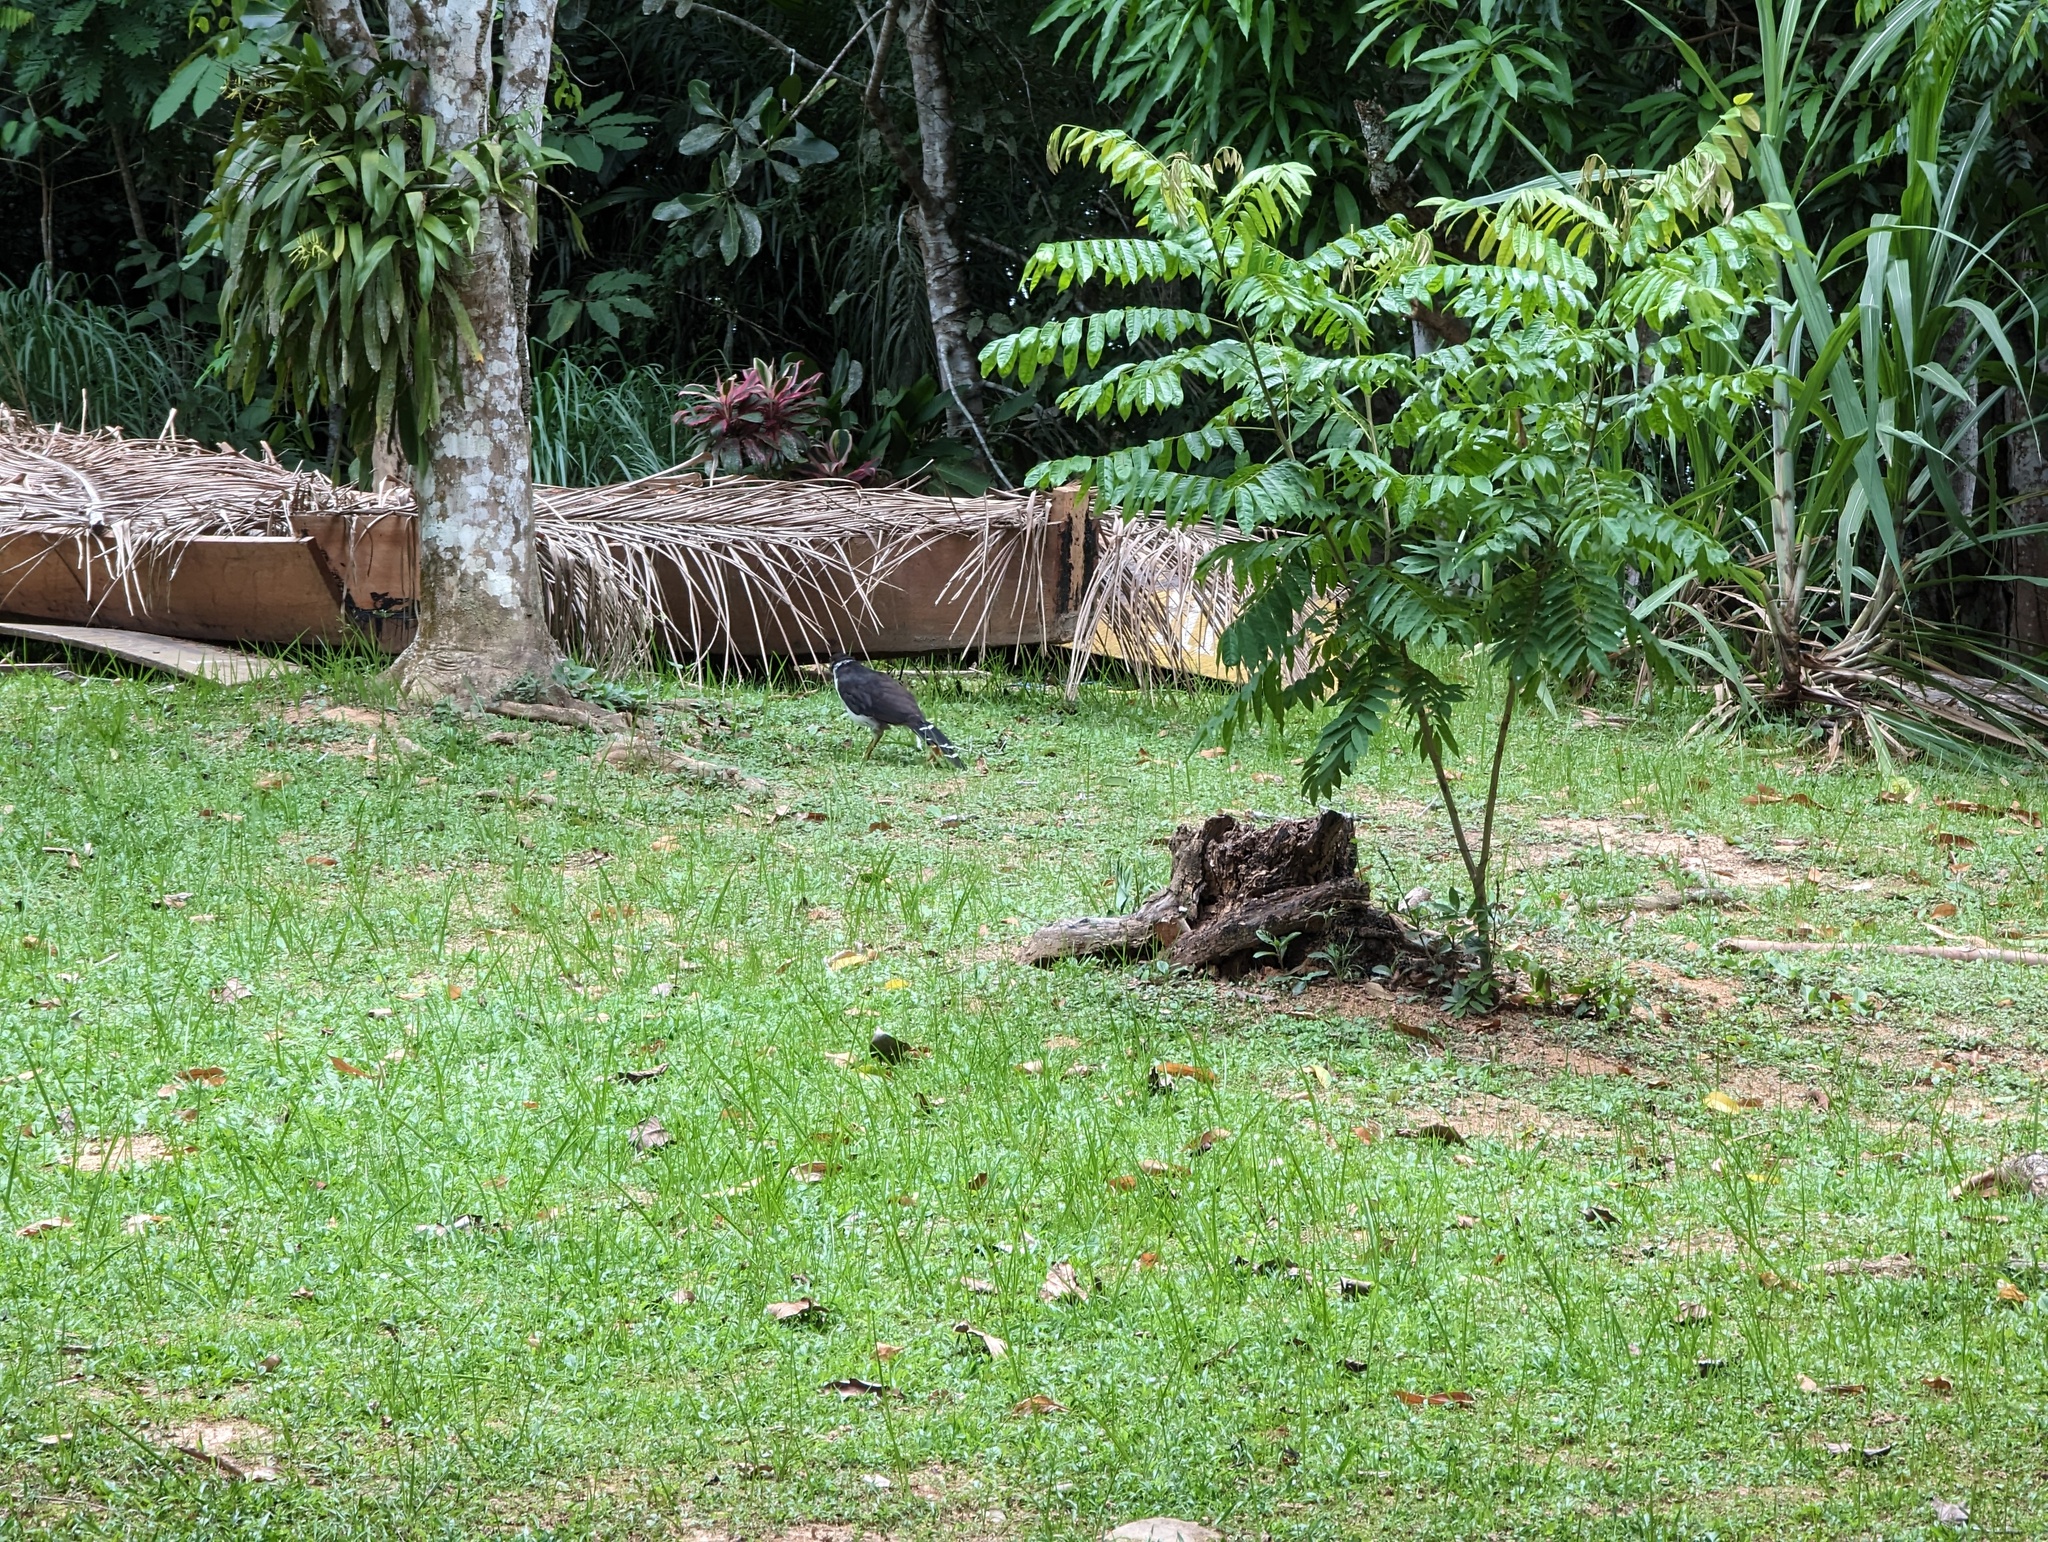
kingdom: Animalia
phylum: Chordata
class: Aves
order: Falconiformes
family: Falconidae
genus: Micrastur
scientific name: Micrastur semitorquatus
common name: Collared forest-falcon
